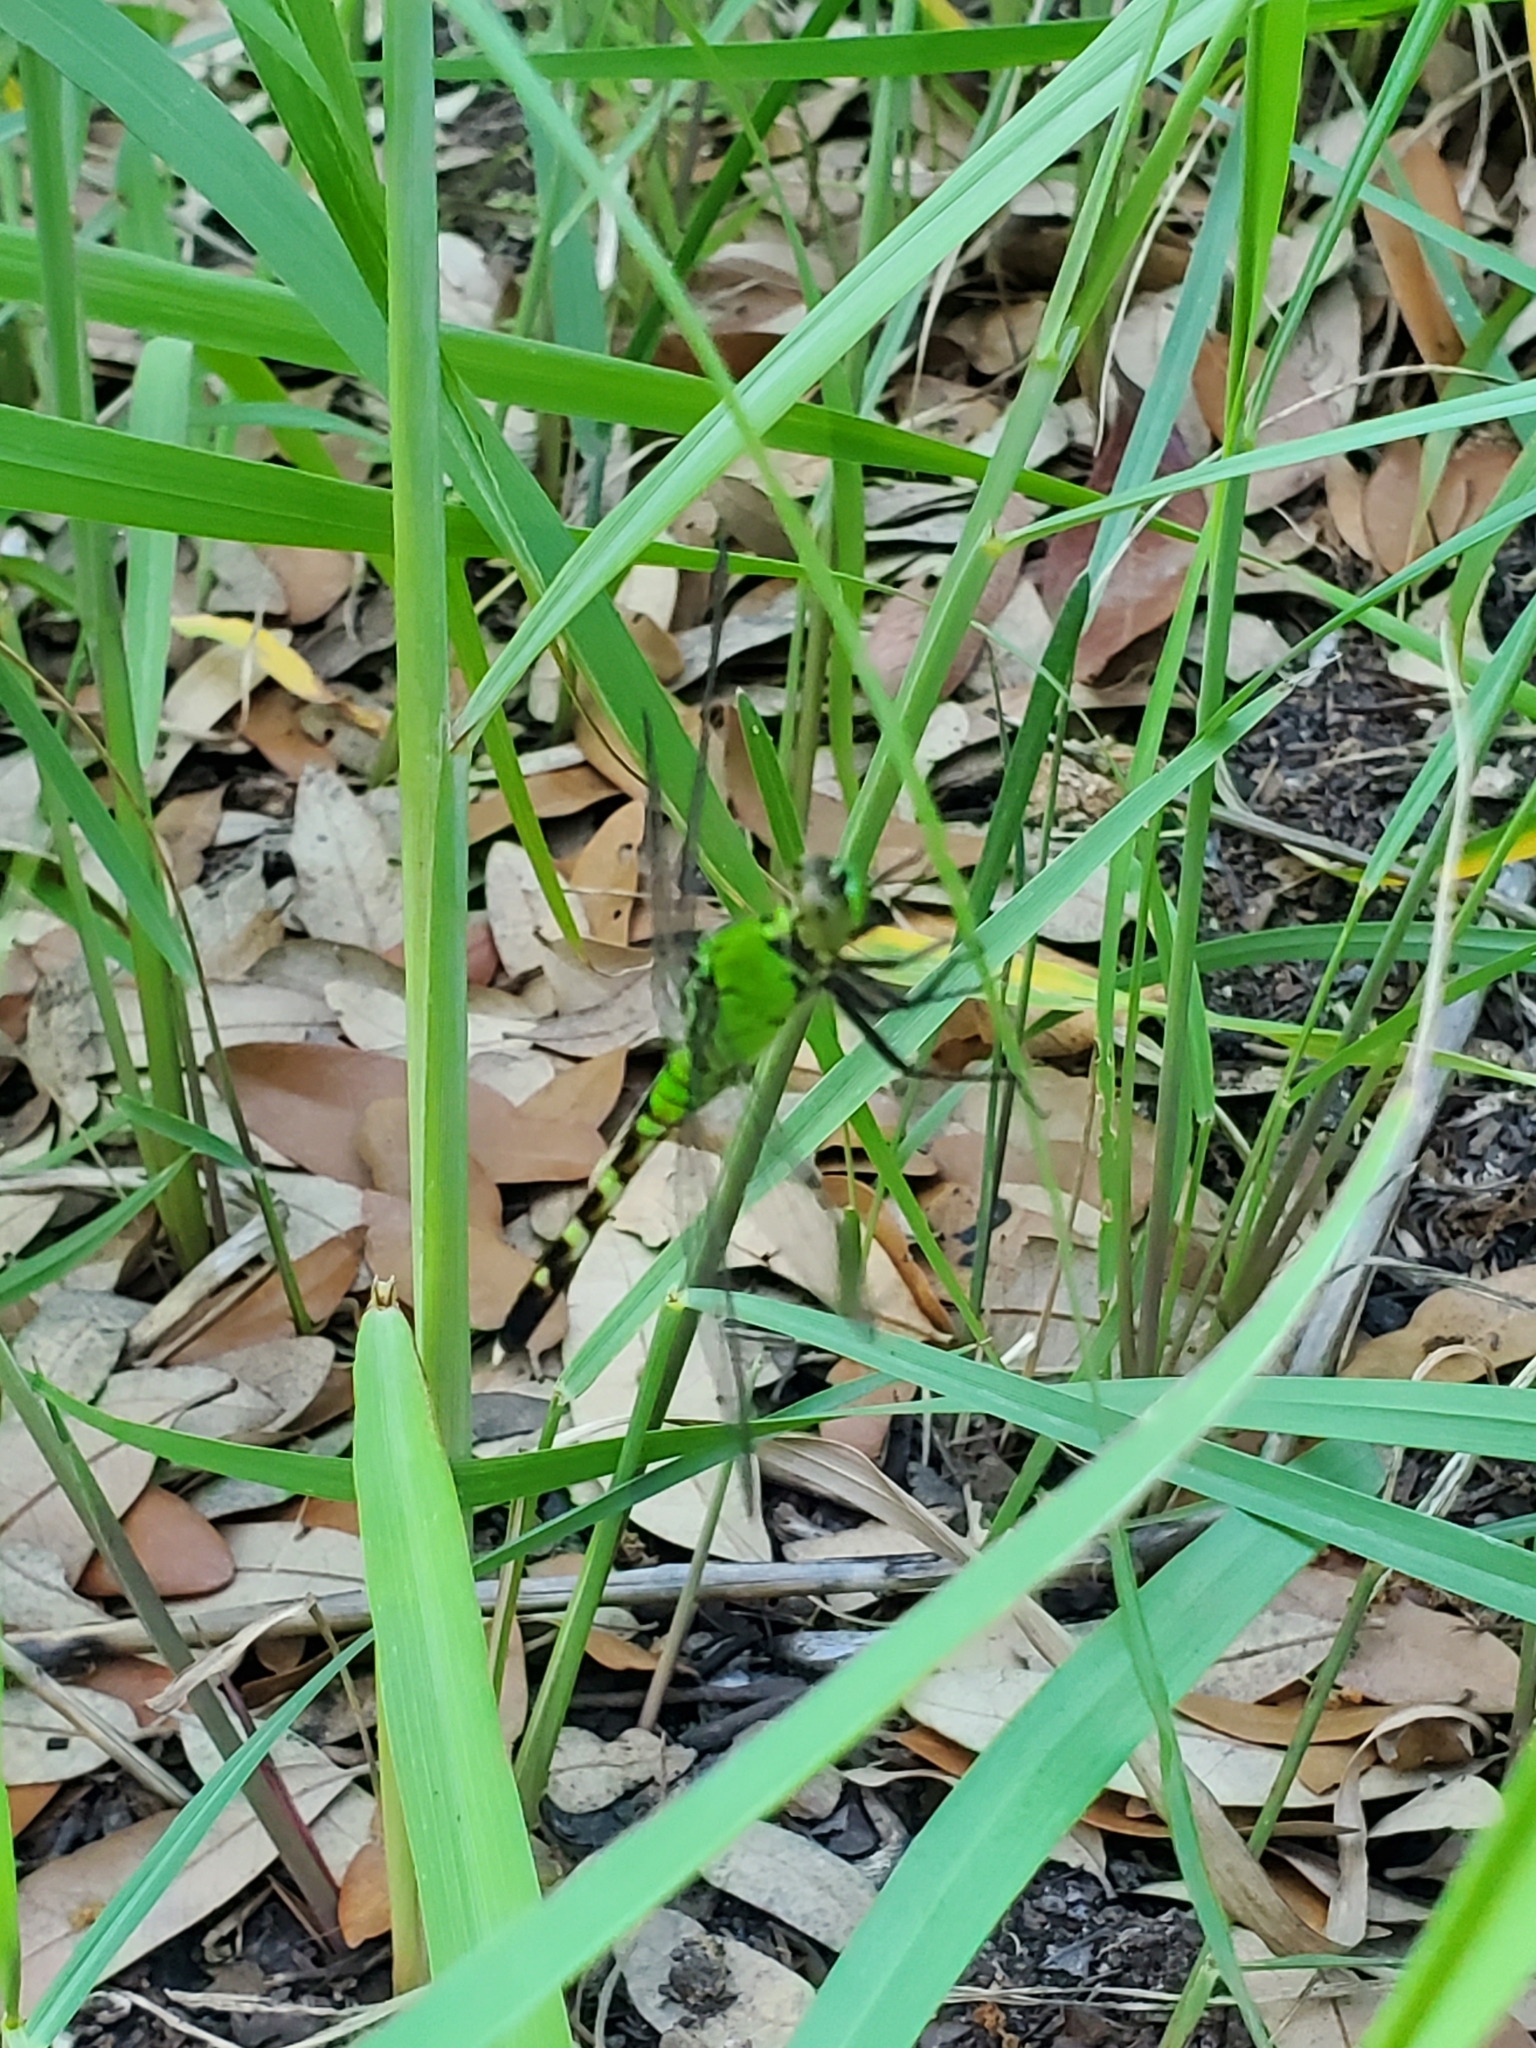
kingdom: Animalia
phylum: Arthropoda
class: Insecta
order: Odonata
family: Libellulidae
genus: Erythemis
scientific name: Erythemis simplicicollis
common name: Eastern pondhawk
